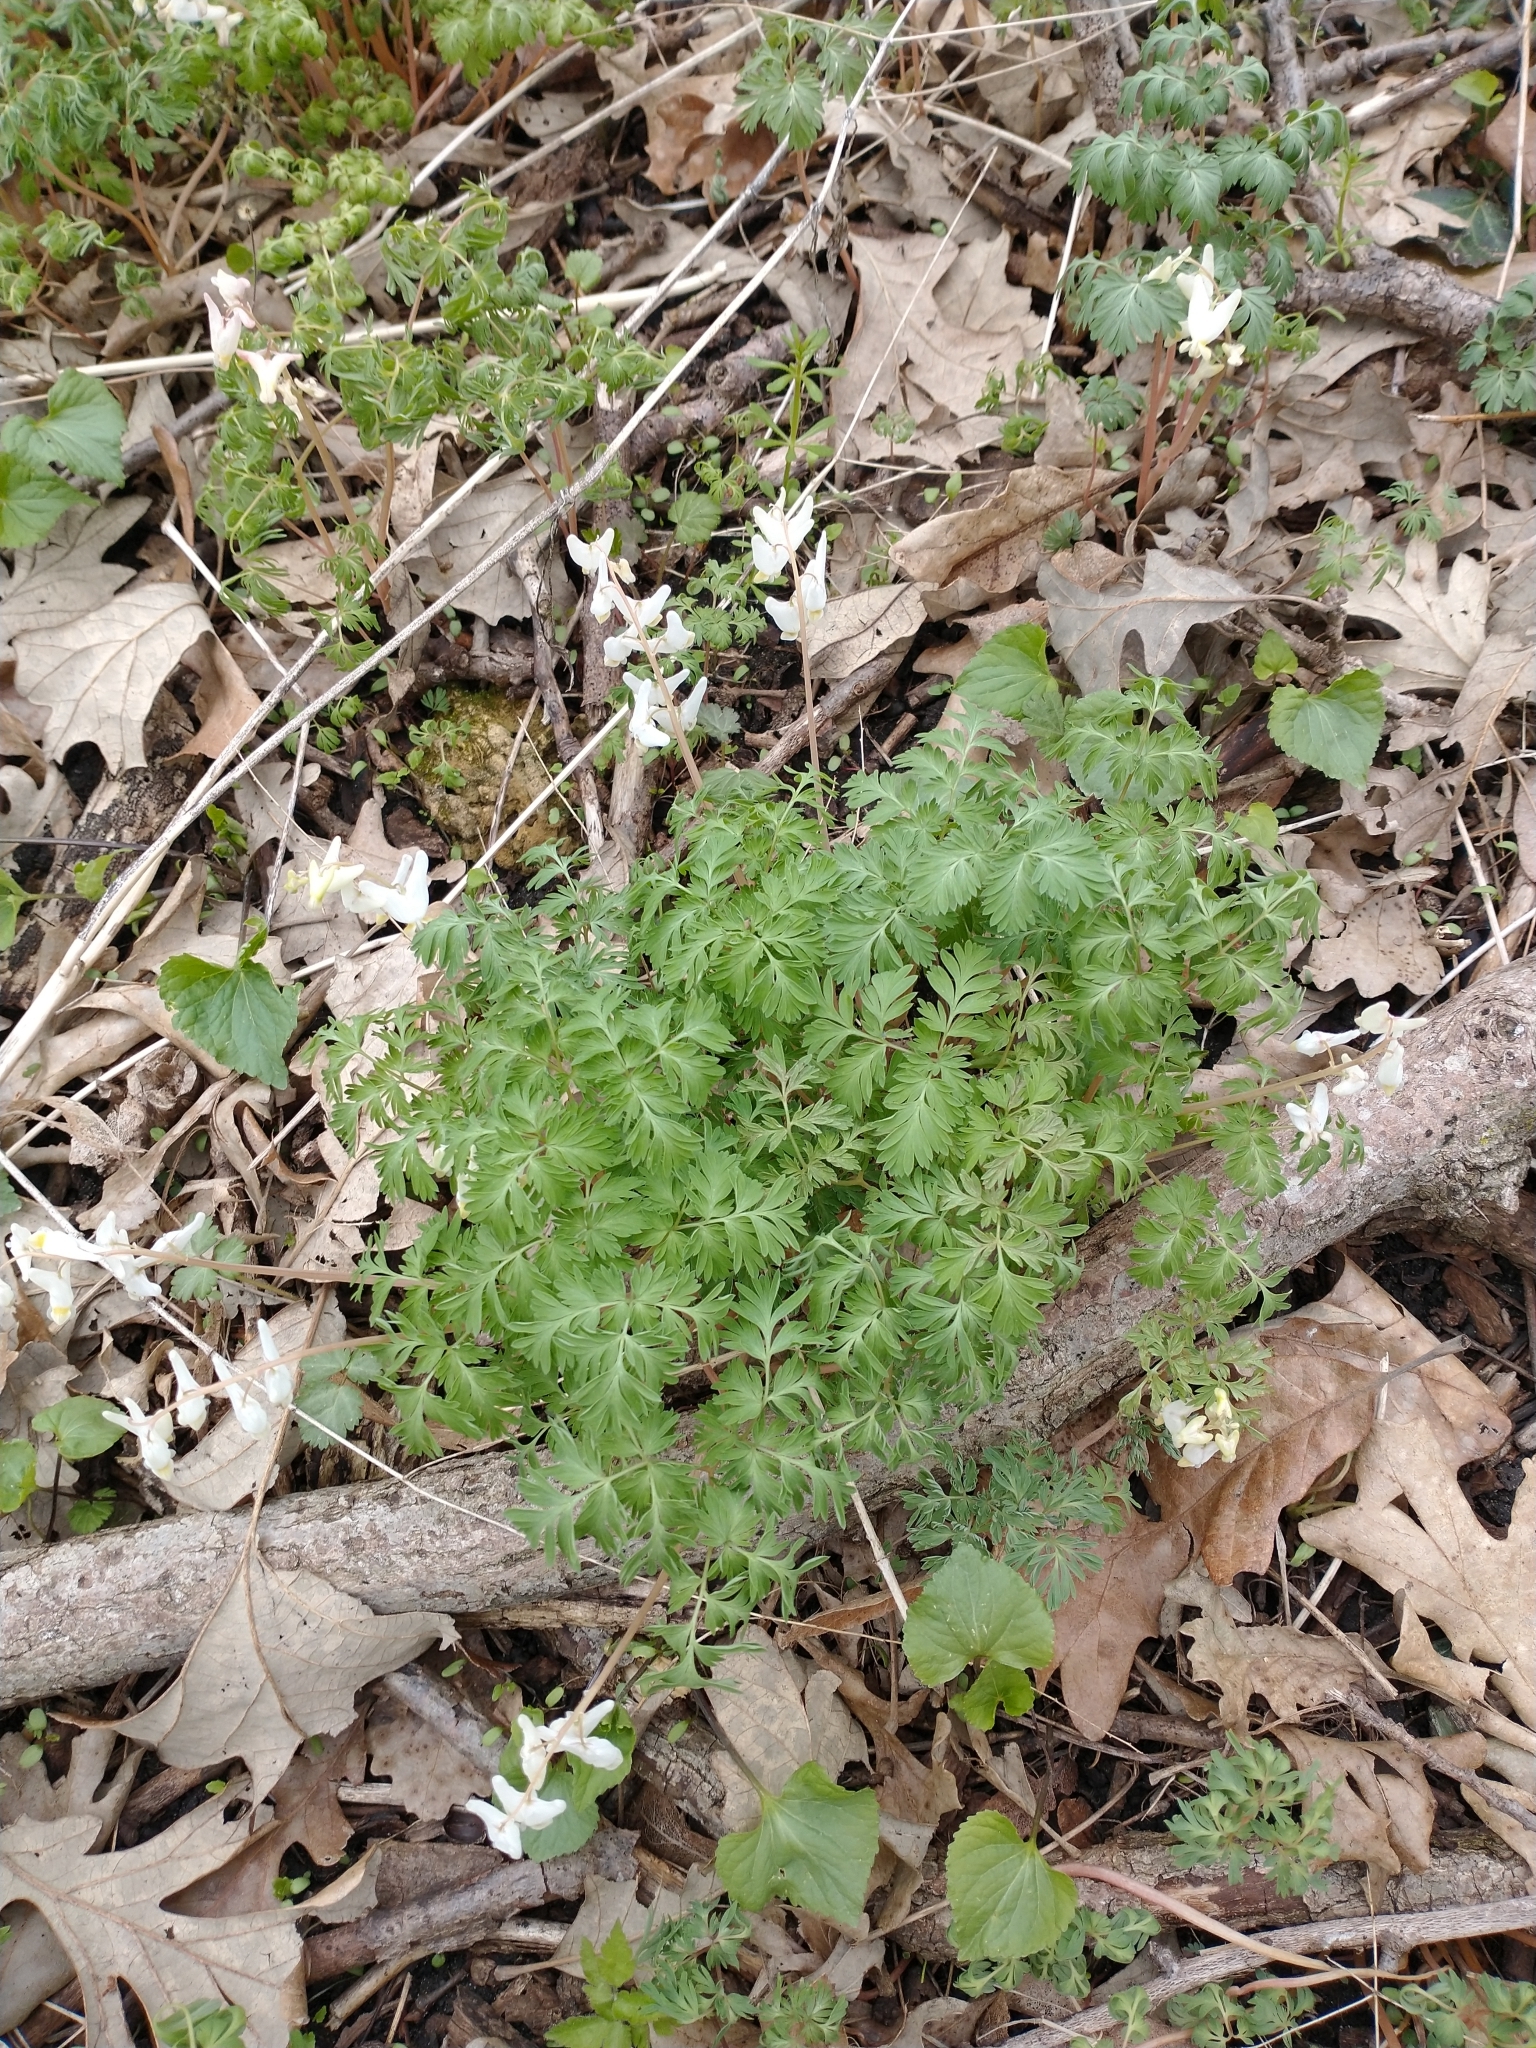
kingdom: Plantae
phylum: Tracheophyta
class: Magnoliopsida
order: Ranunculales
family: Papaveraceae
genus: Dicentra
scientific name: Dicentra cucullaria
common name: Dutchman's breeches
